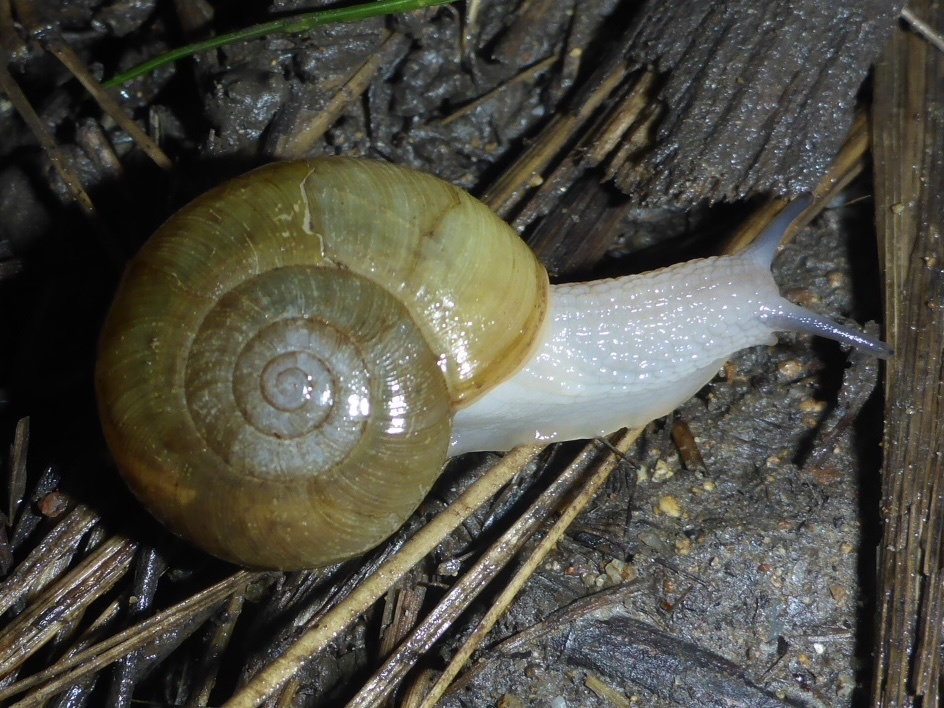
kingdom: Animalia
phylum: Mollusca
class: Gastropoda
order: Stylommatophora
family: Haplotrematidae
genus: Haplotrema
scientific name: Haplotrema minimum
